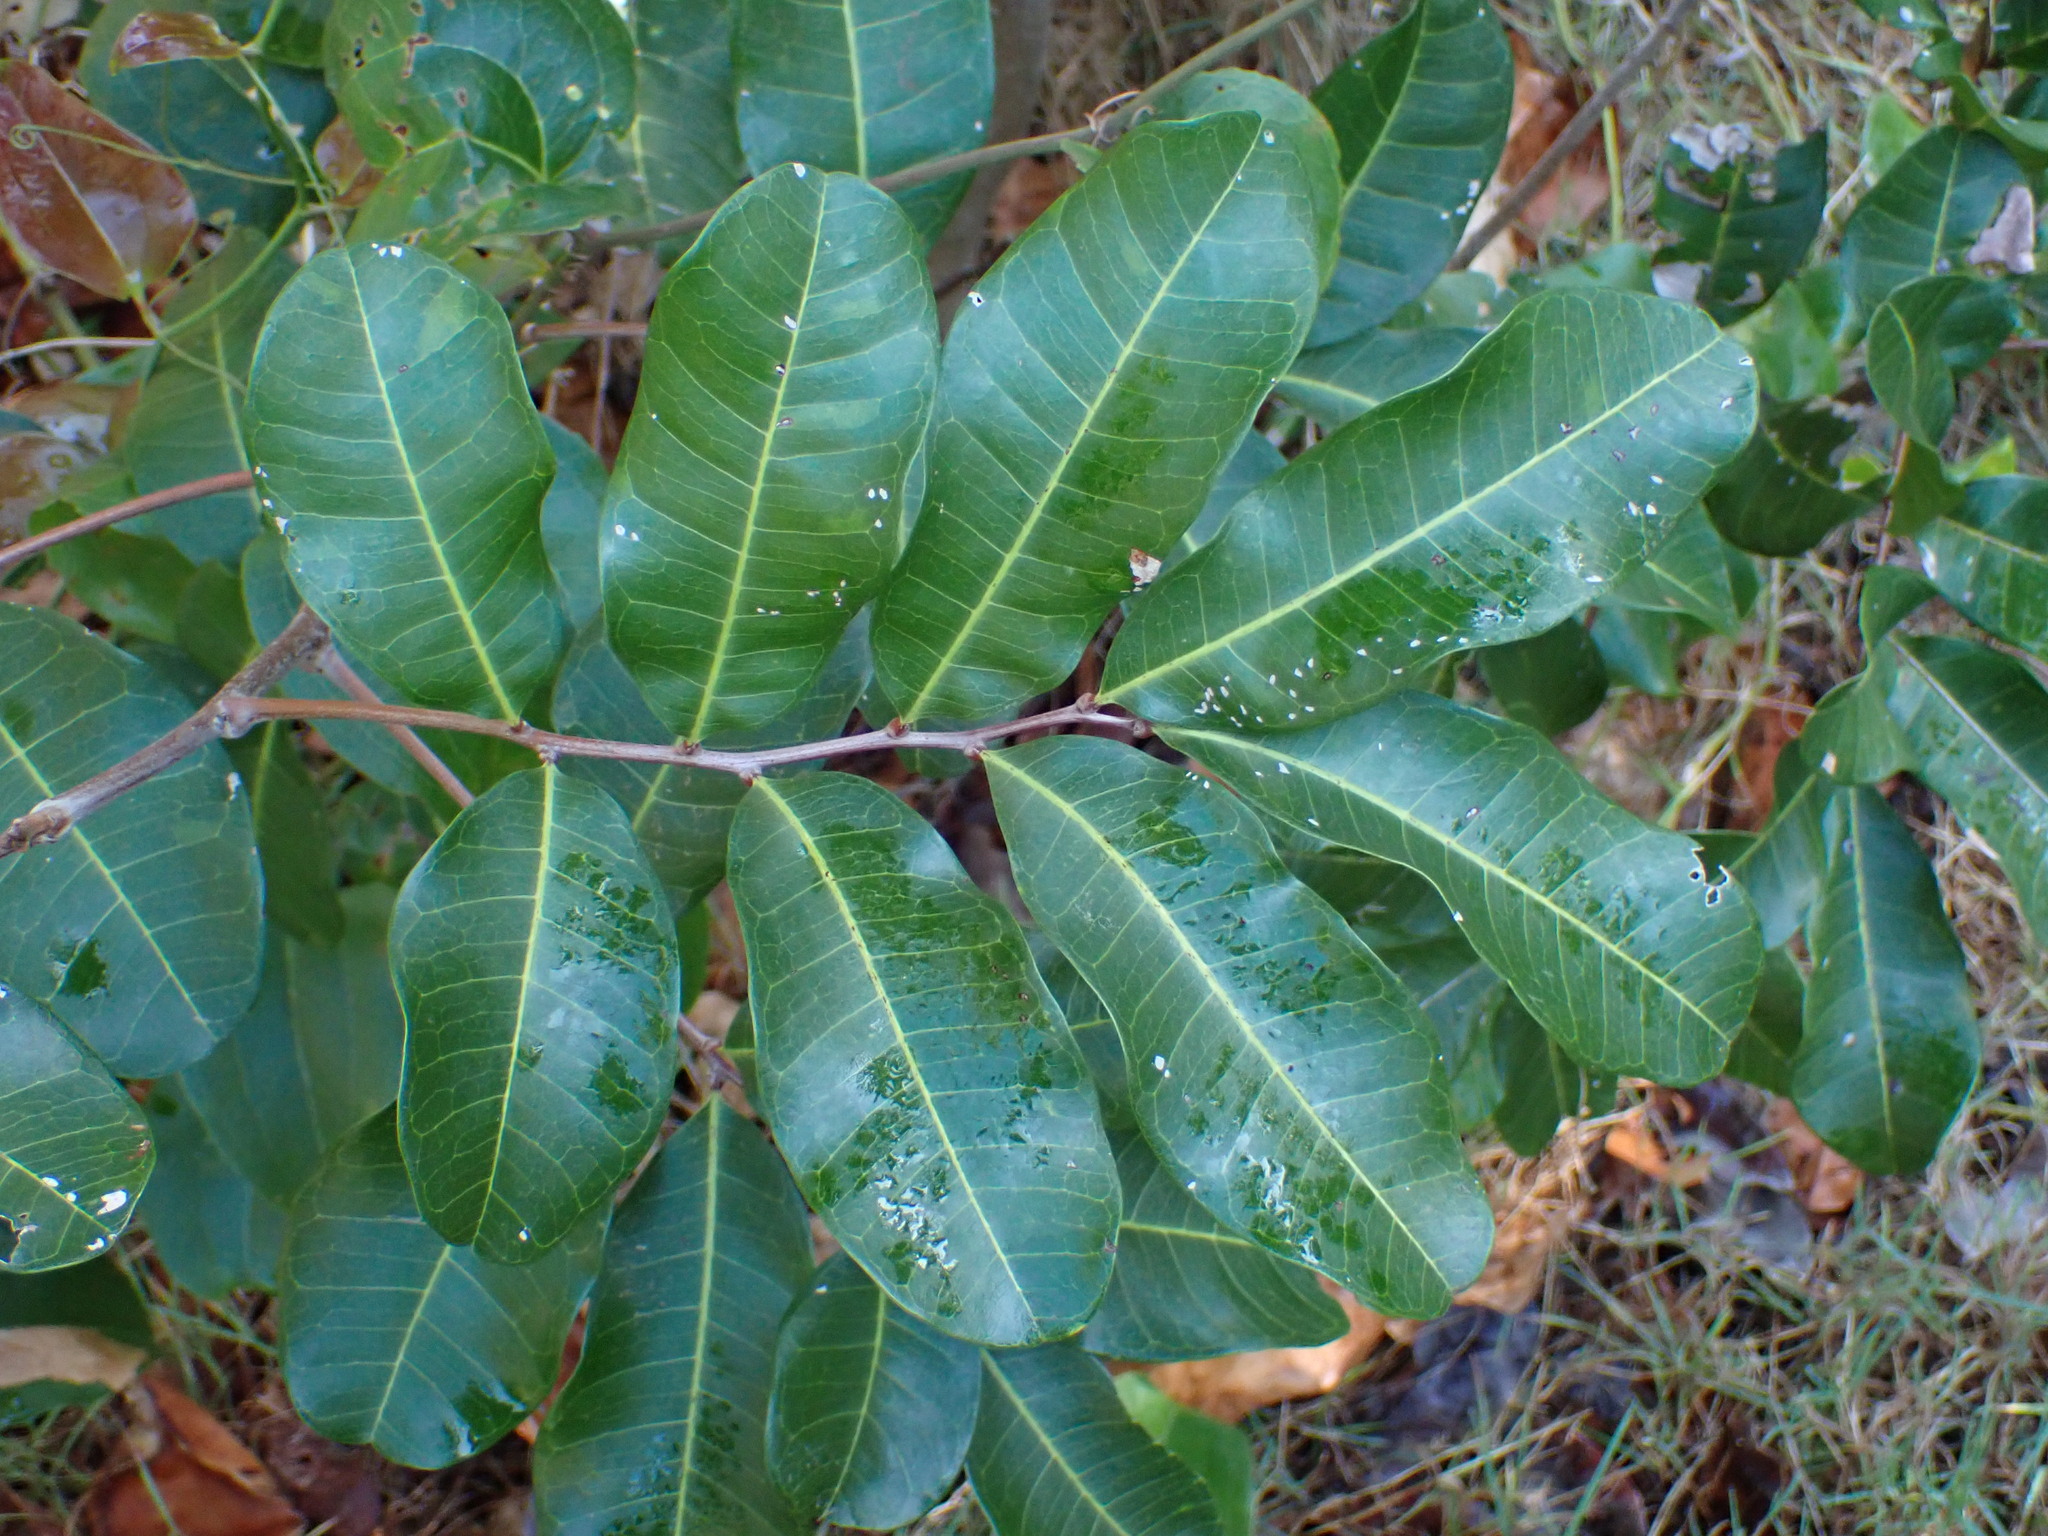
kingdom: Plantae
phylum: Tracheophyta
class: Magnoliopsida
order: Sapindales
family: Sapindaceae
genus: Cupaniopsis
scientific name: Cupaniopsis anacardioides
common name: Carrotwood
